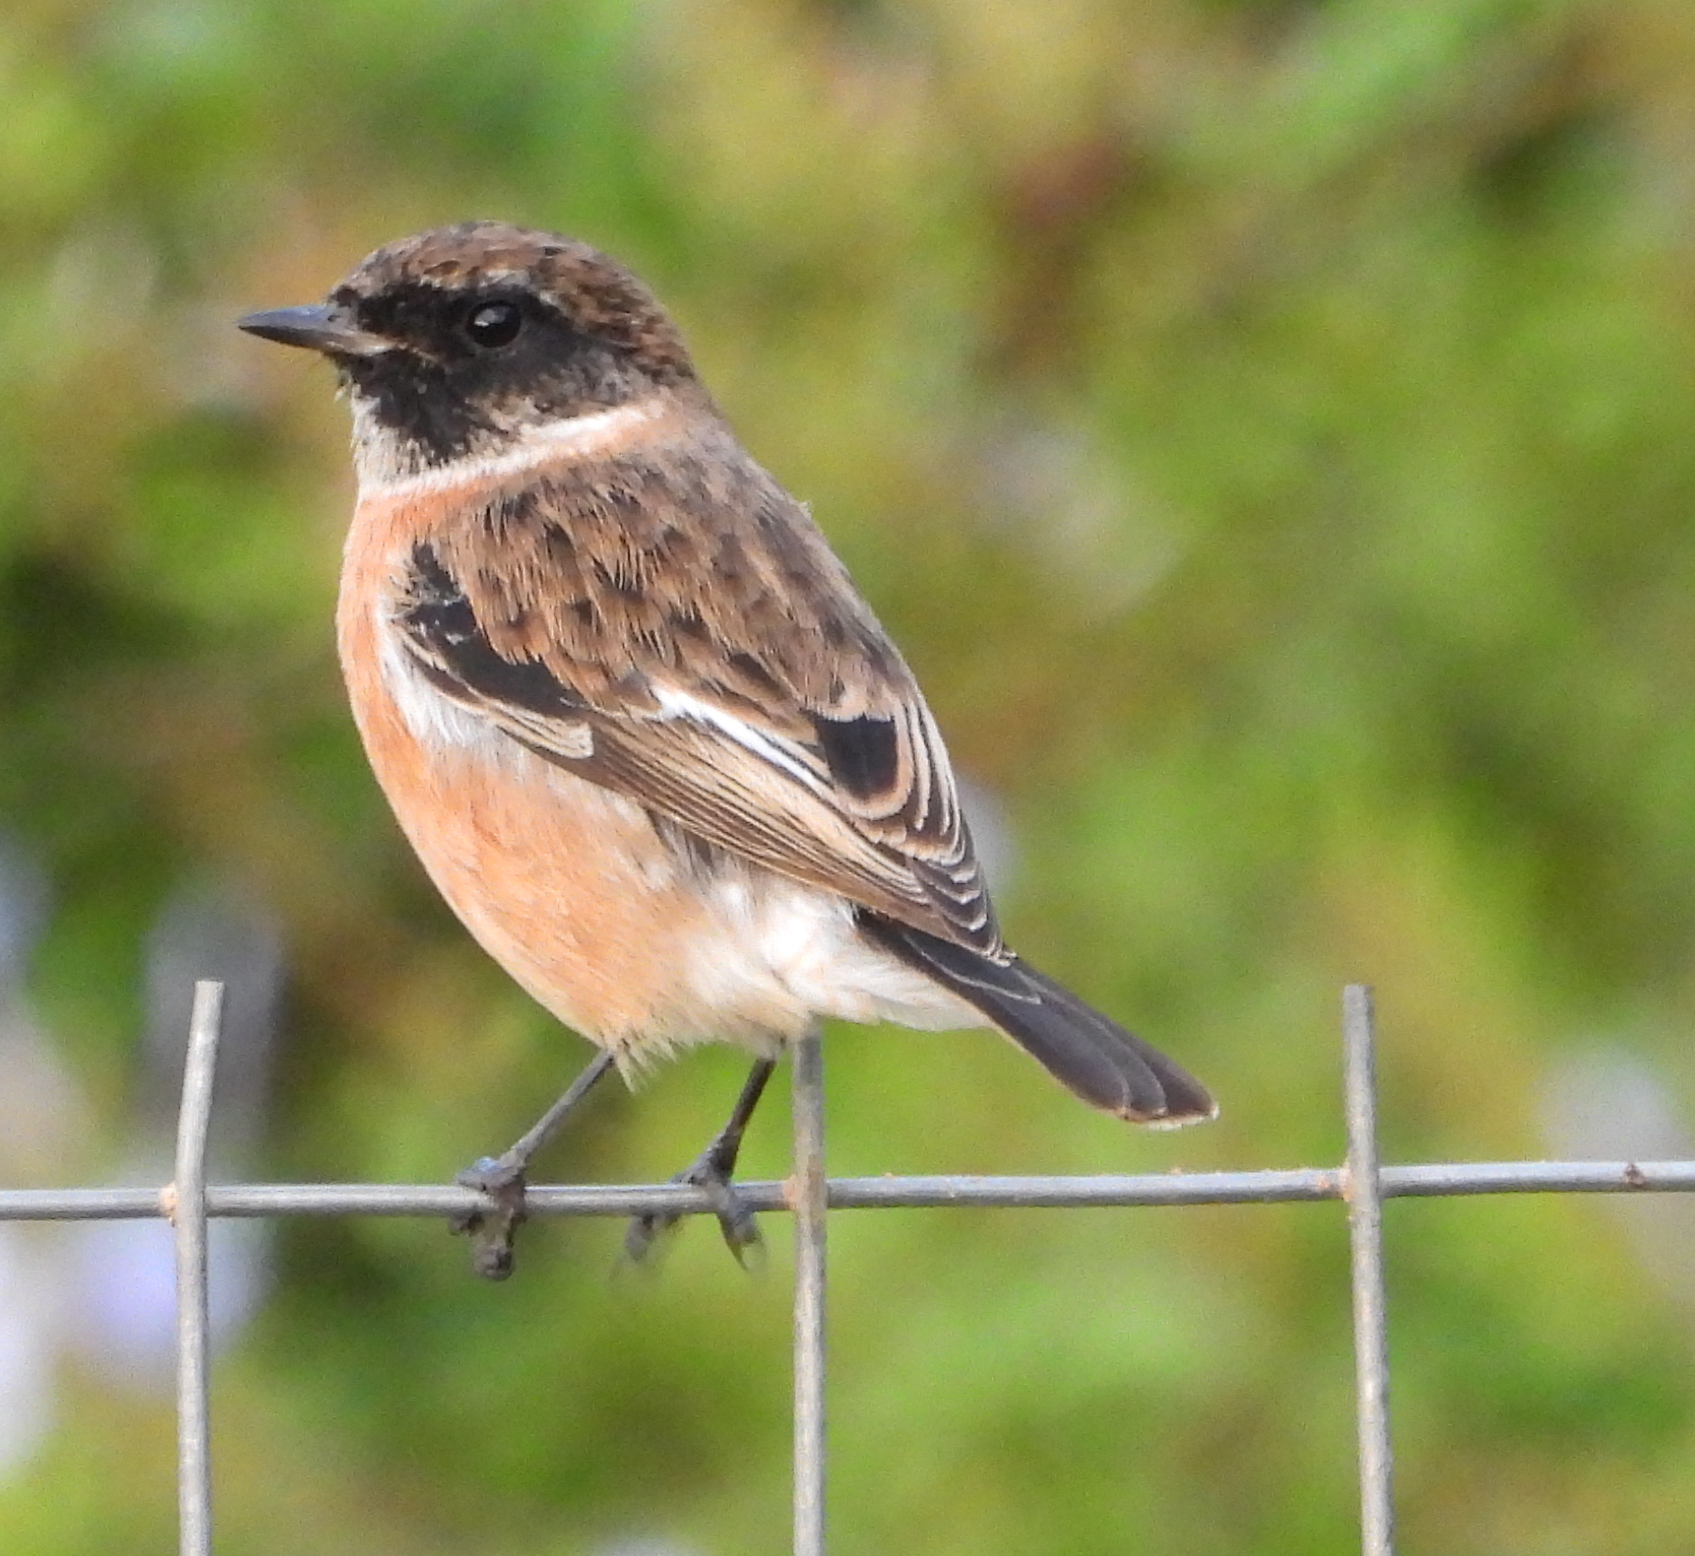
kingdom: Animalia
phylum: Chordata
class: Aves
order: Passeriformes
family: Muscicapidae
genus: Saxicola
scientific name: Saxicola torquatus
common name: African stonechat
